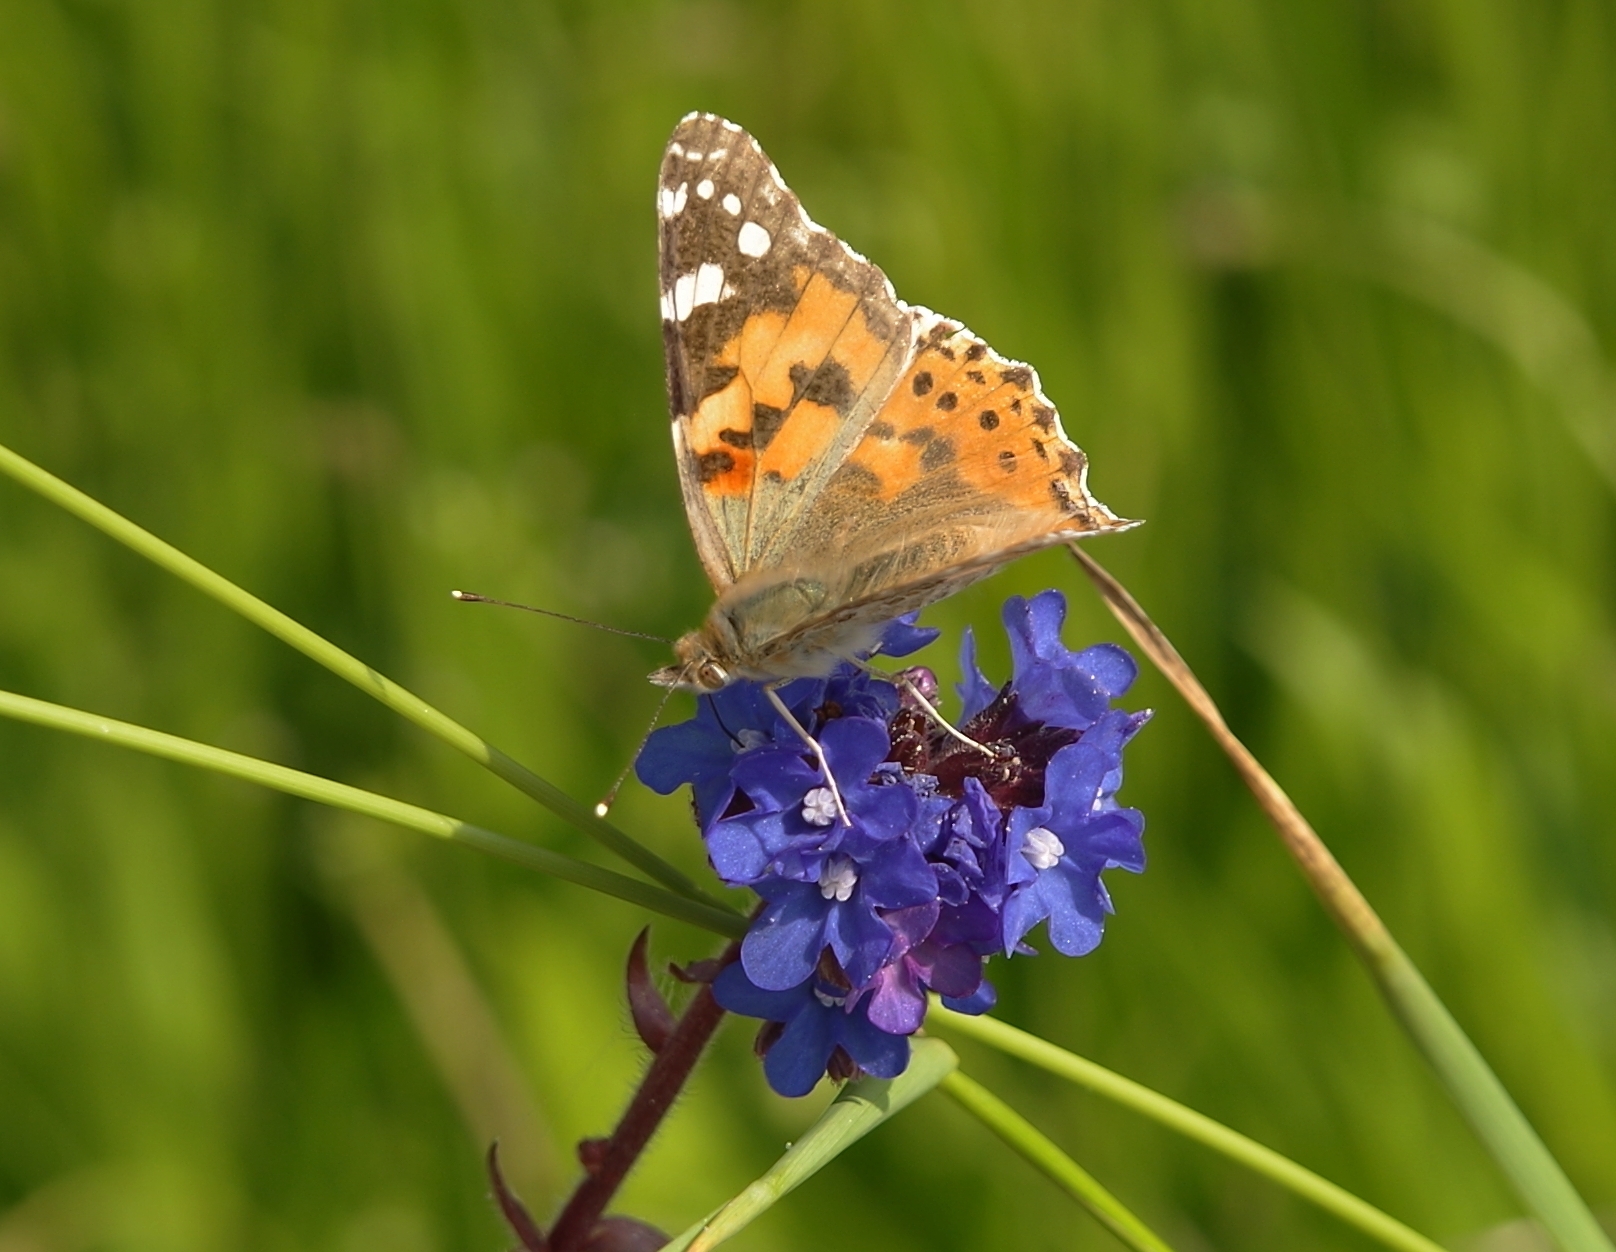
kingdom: Animalia
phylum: Arthropoda
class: Insecta
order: Lepidoptera
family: Nymphalidae
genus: Vanessa
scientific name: Vanessa cardui
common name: Painted lady
